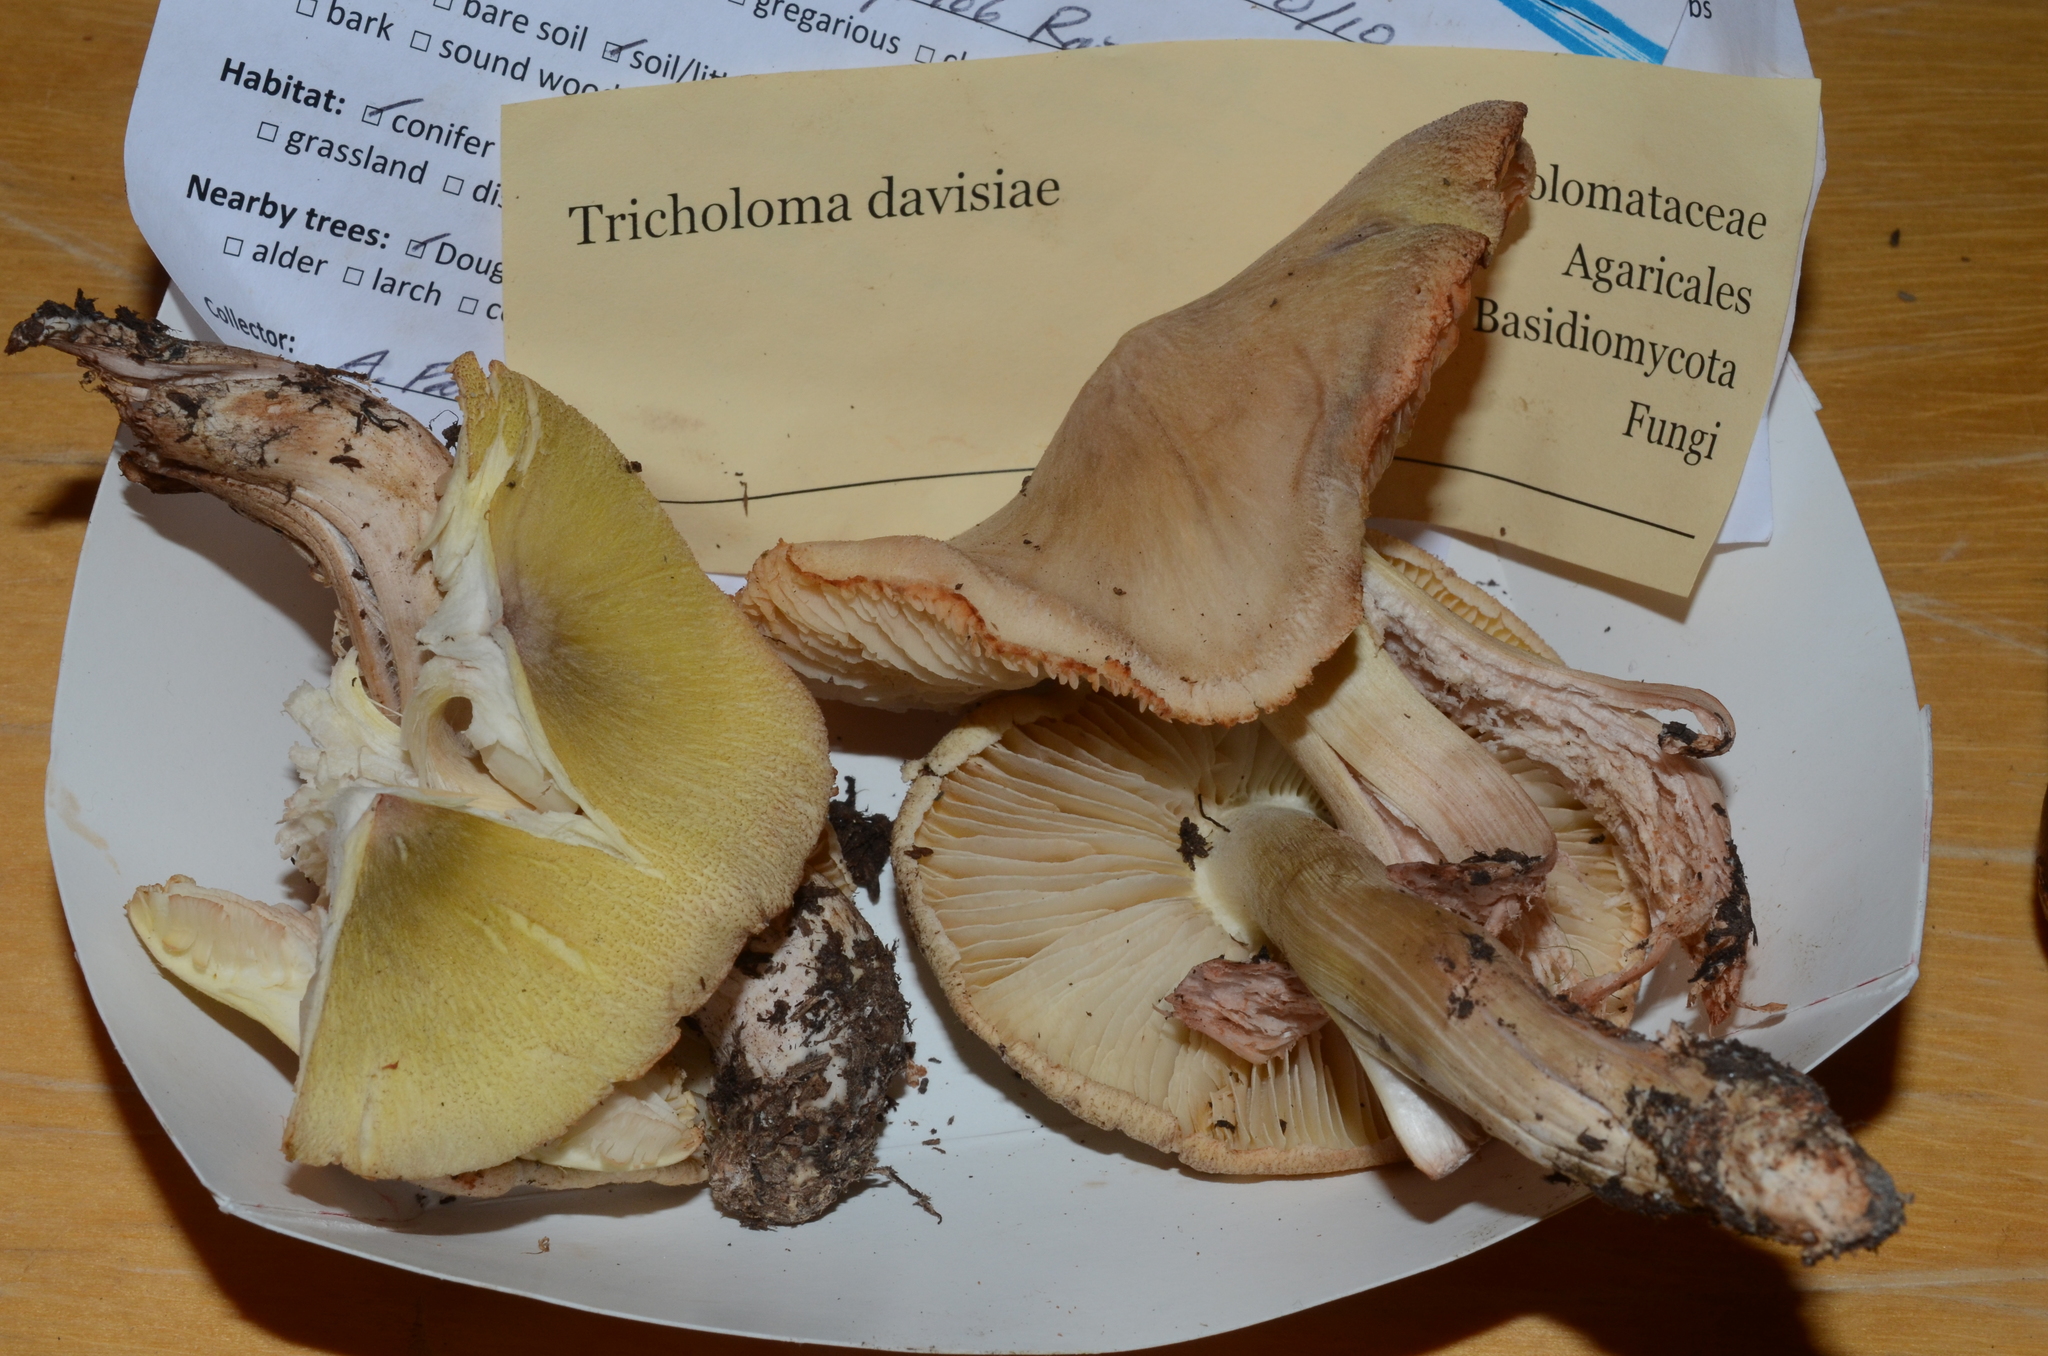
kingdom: Fungi
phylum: Basidiomycota
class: Agaricomycetes
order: Agaricales
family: Tricholomataceae
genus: Melanoleuca
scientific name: Melanoleuca davisiae
